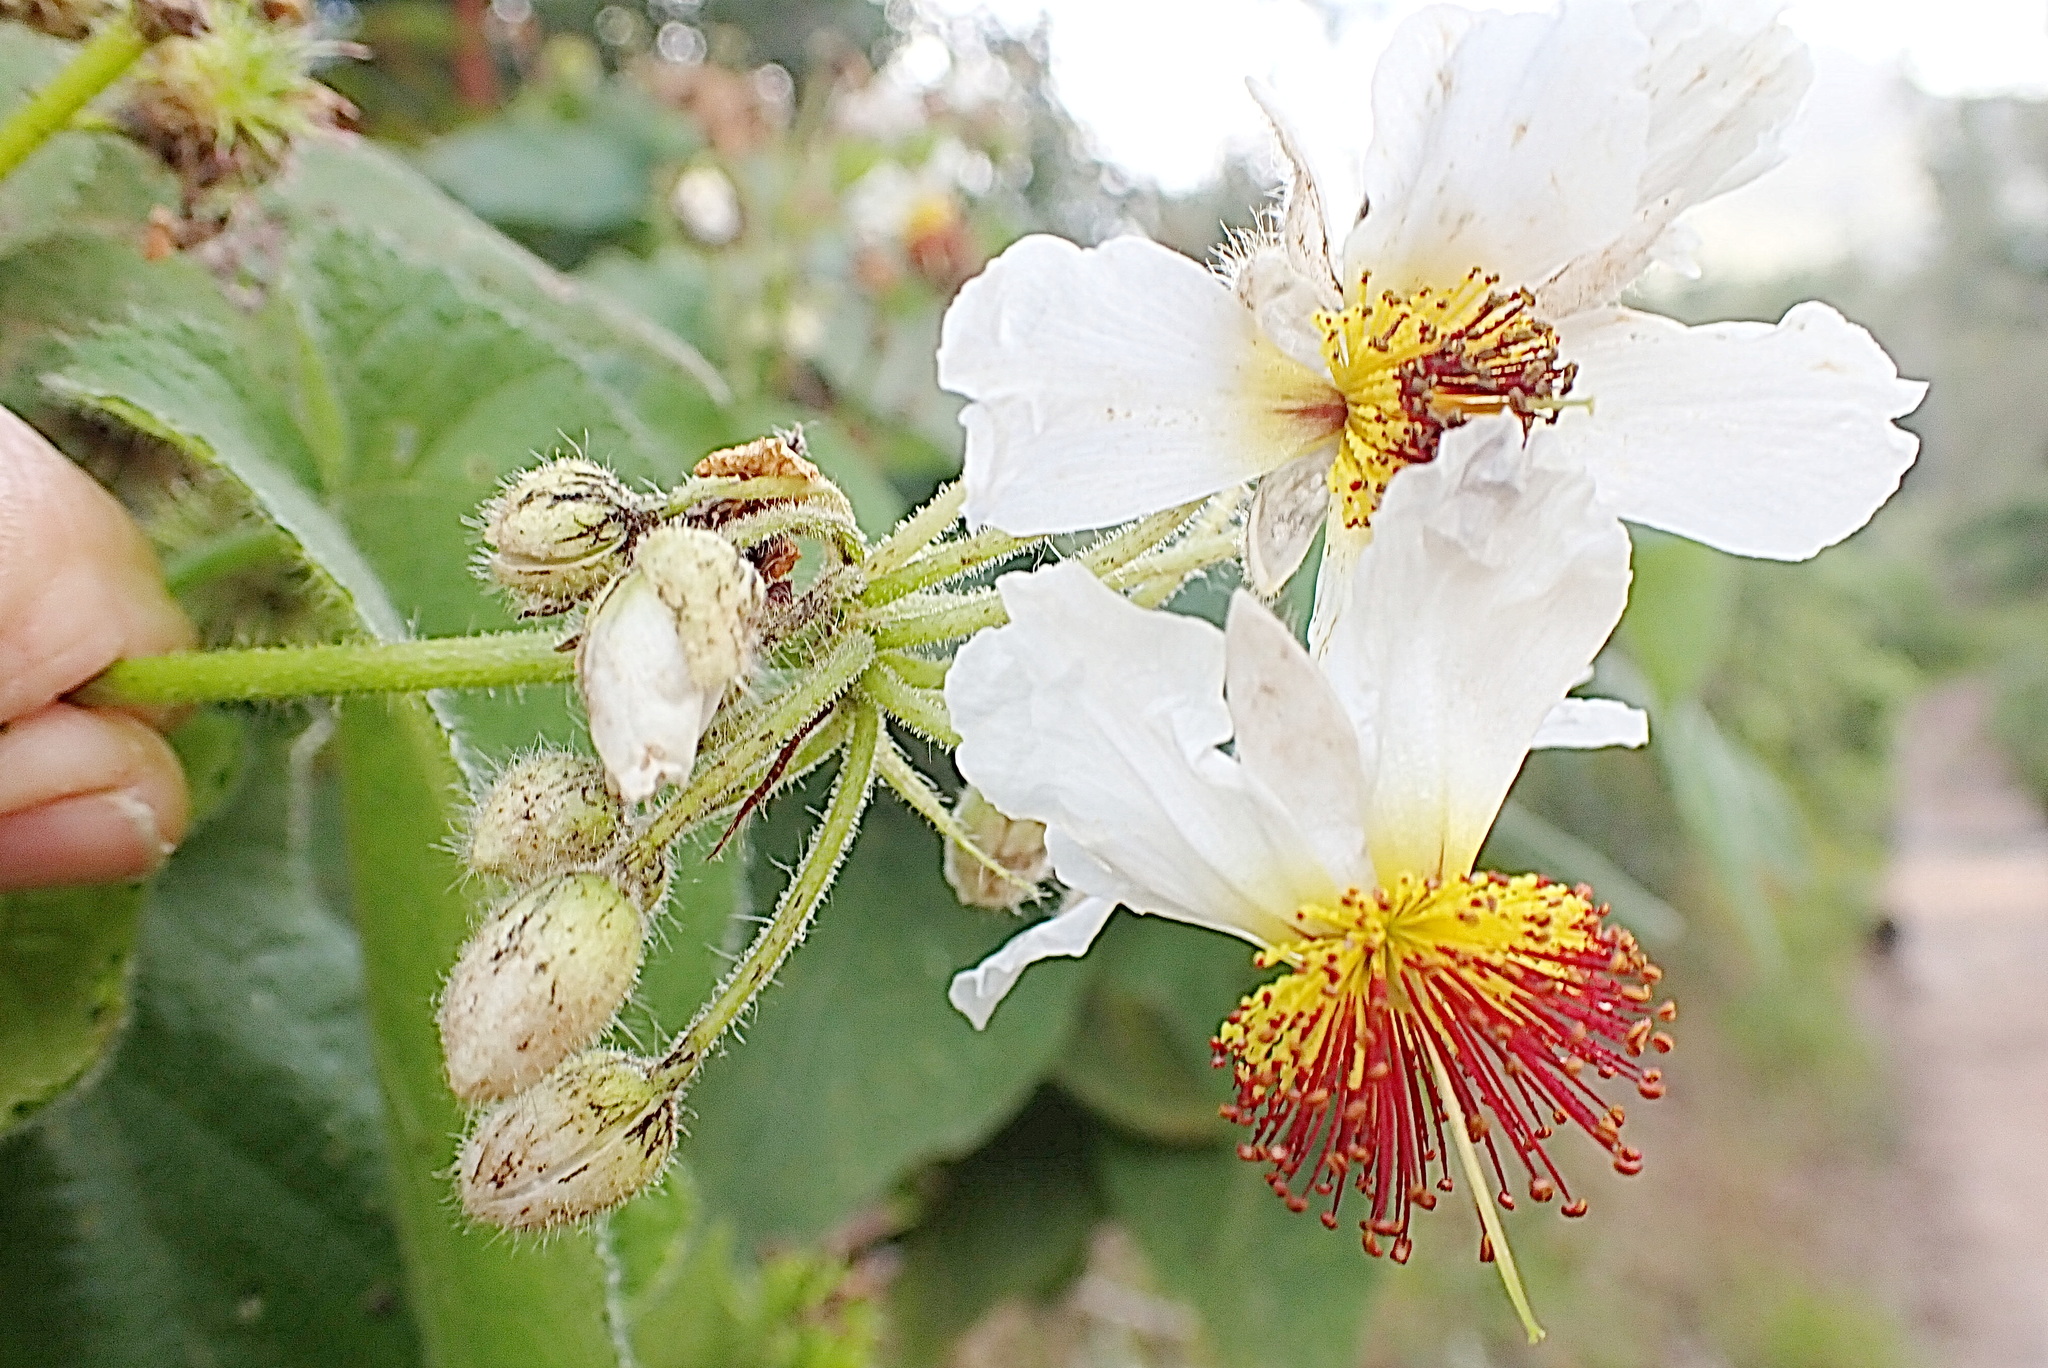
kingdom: Plantae
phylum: Tracheophyta
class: Magnoliopsida
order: Malvales
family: Malvaceae
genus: Sparrmannia
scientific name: Sparrmannia africana
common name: African-hemp
